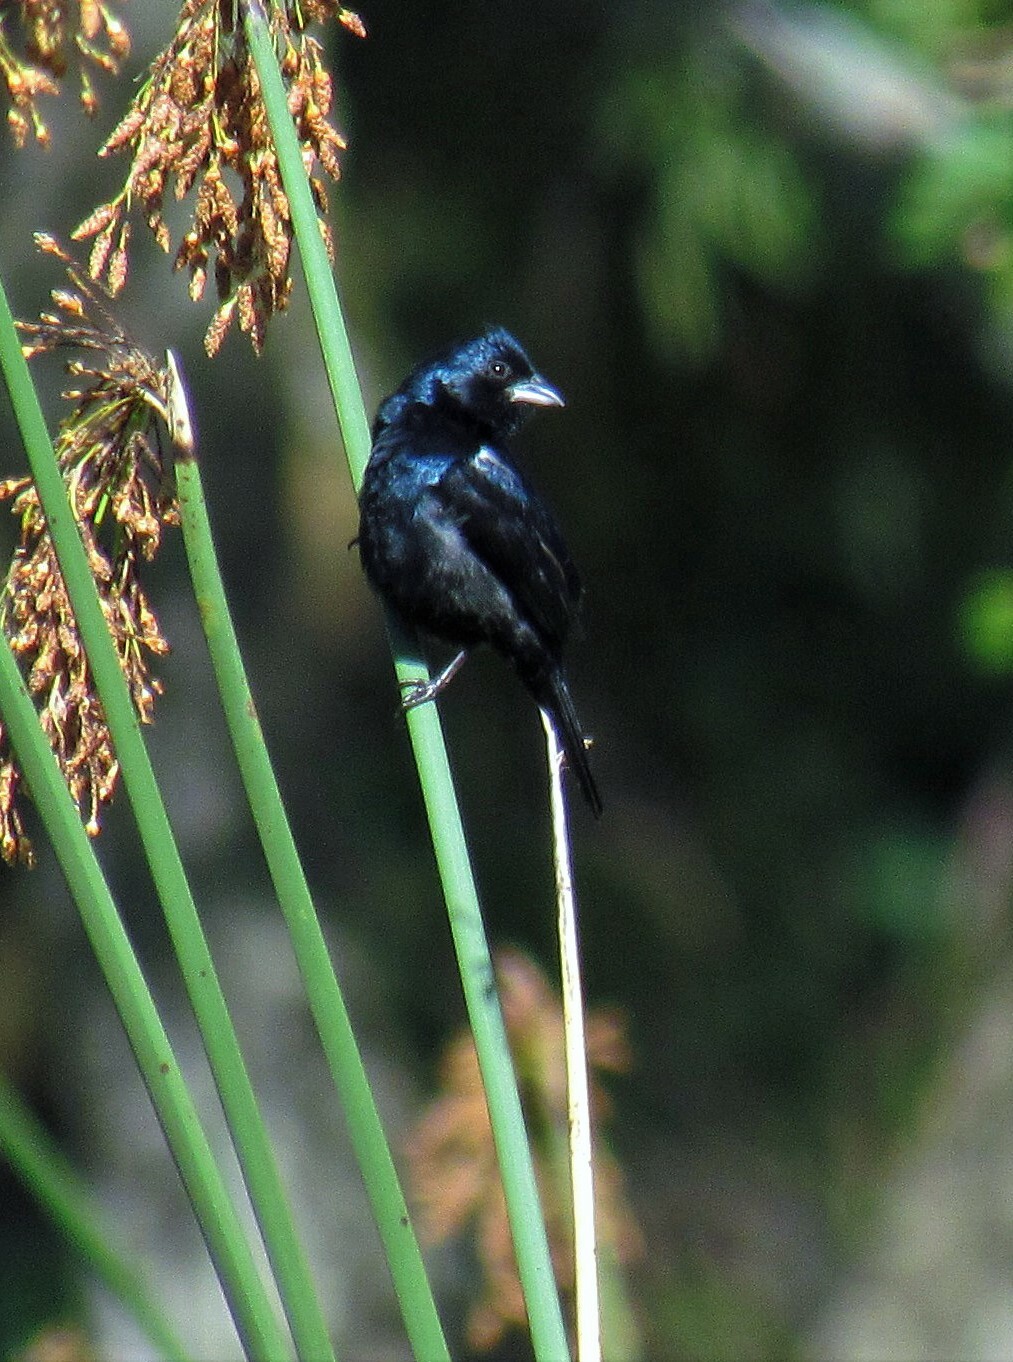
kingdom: Animalia
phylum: Chordata
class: Aves
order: Passeriformes
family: Thraupidae
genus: Volatinia
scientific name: Volatinia jacarina
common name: Blue-black grassquit
